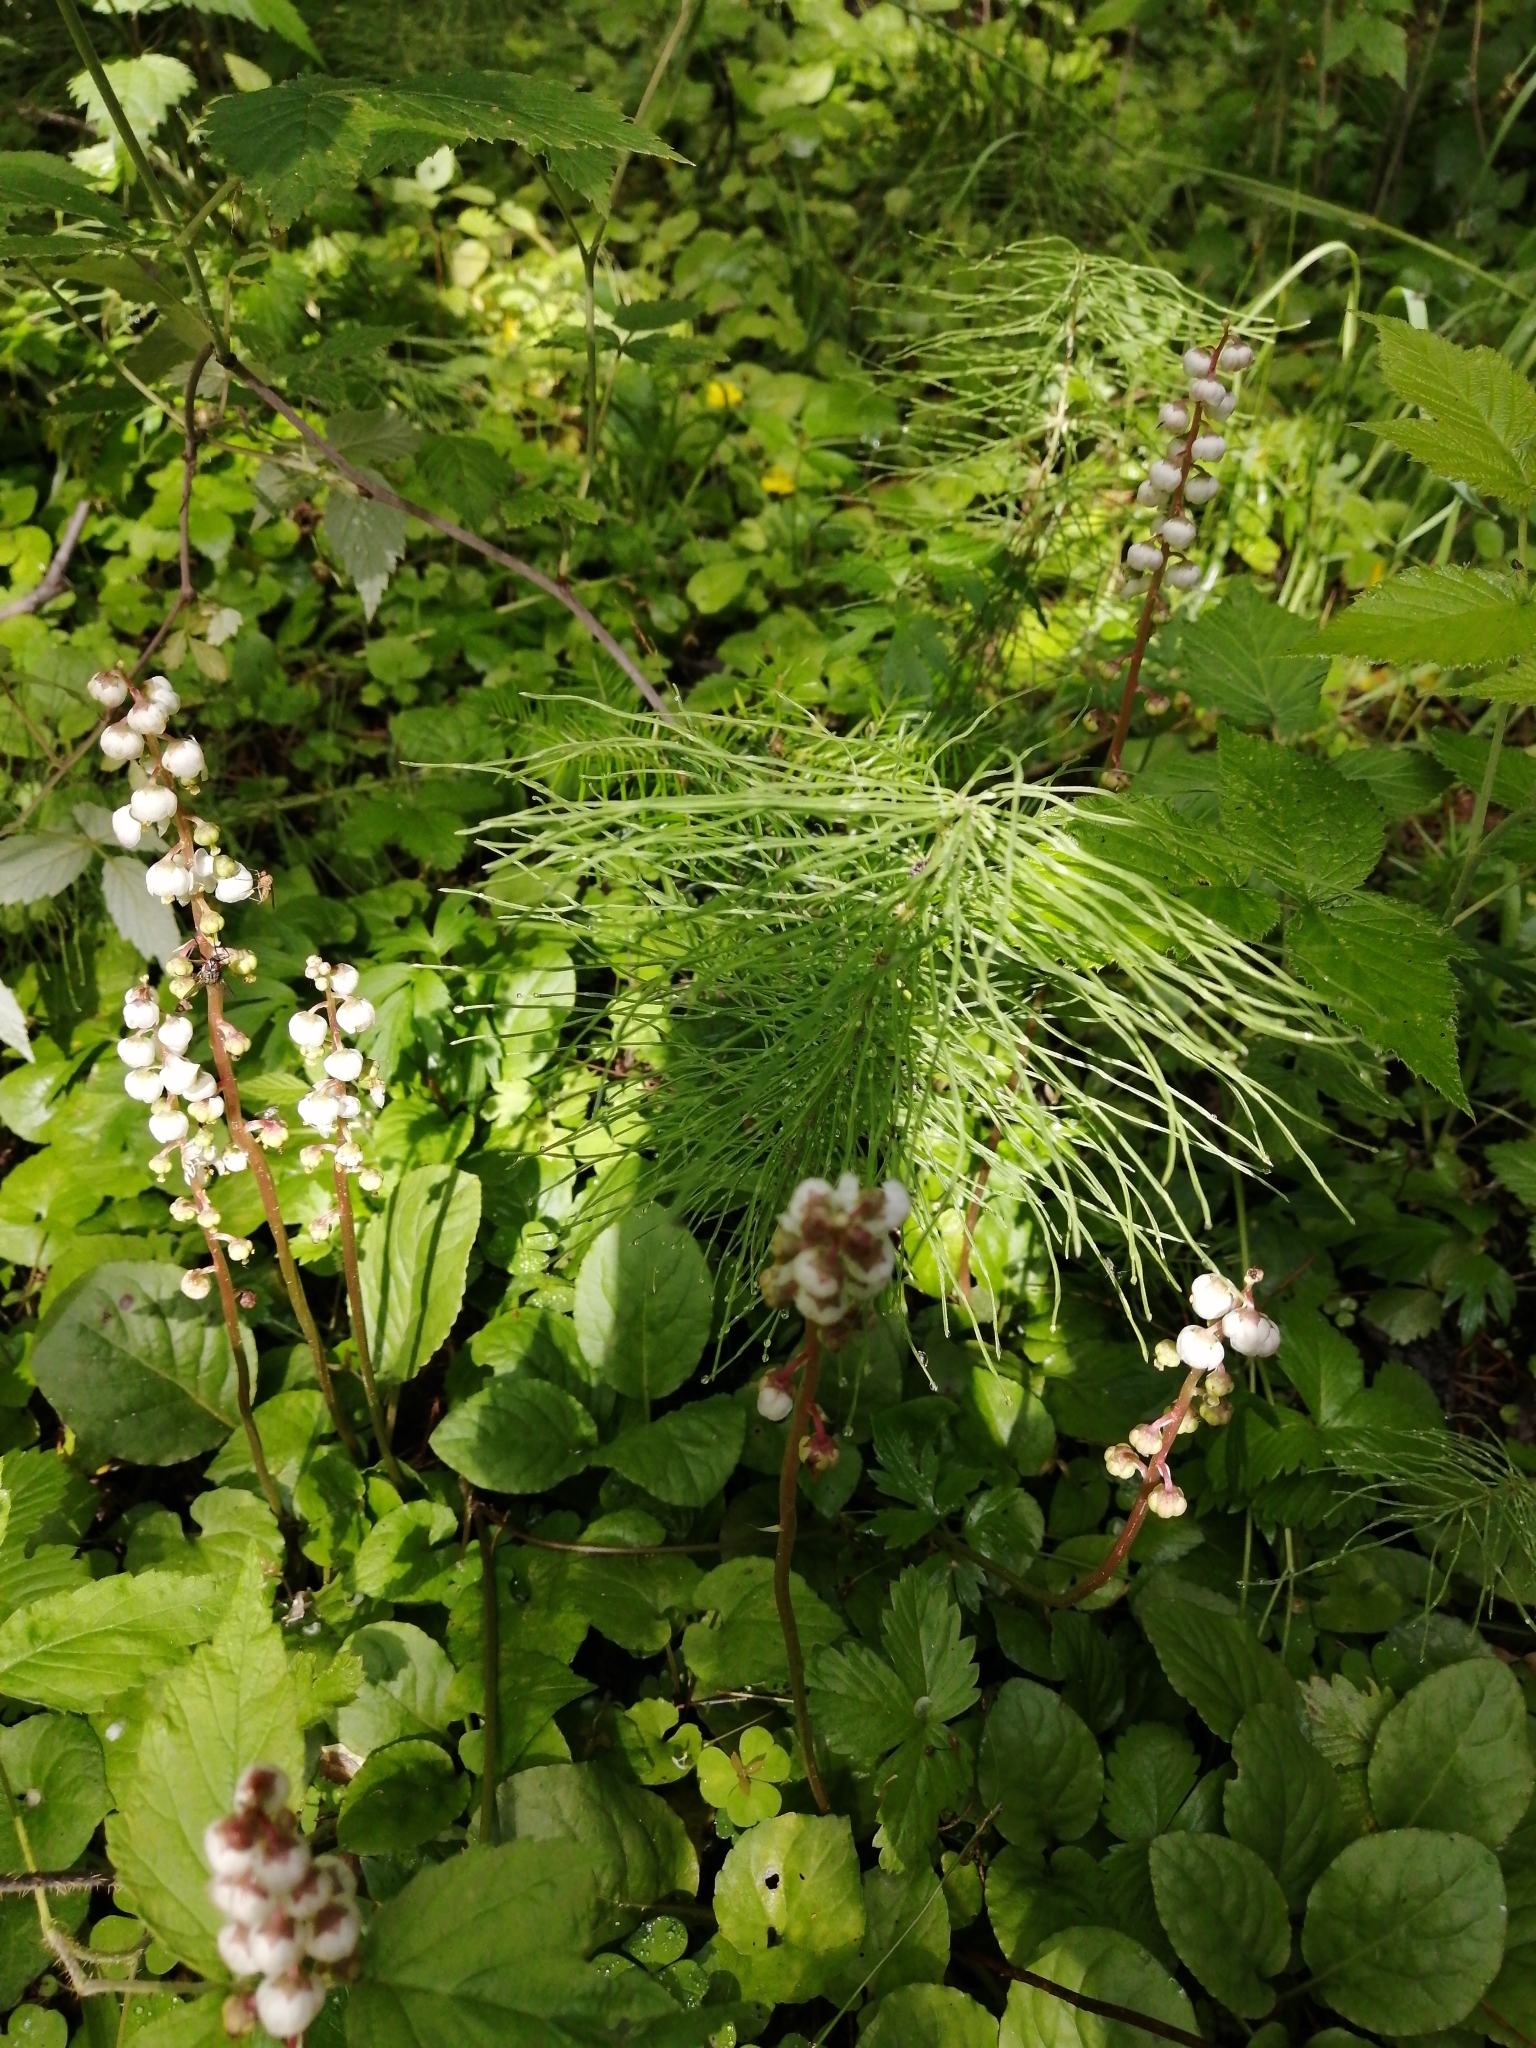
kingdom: Plantae
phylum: Tracheophyta
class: Magnoliopsida
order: Ericales
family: Ericaceae
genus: Pyrola
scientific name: Pyrola minor
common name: Common wintergreen
